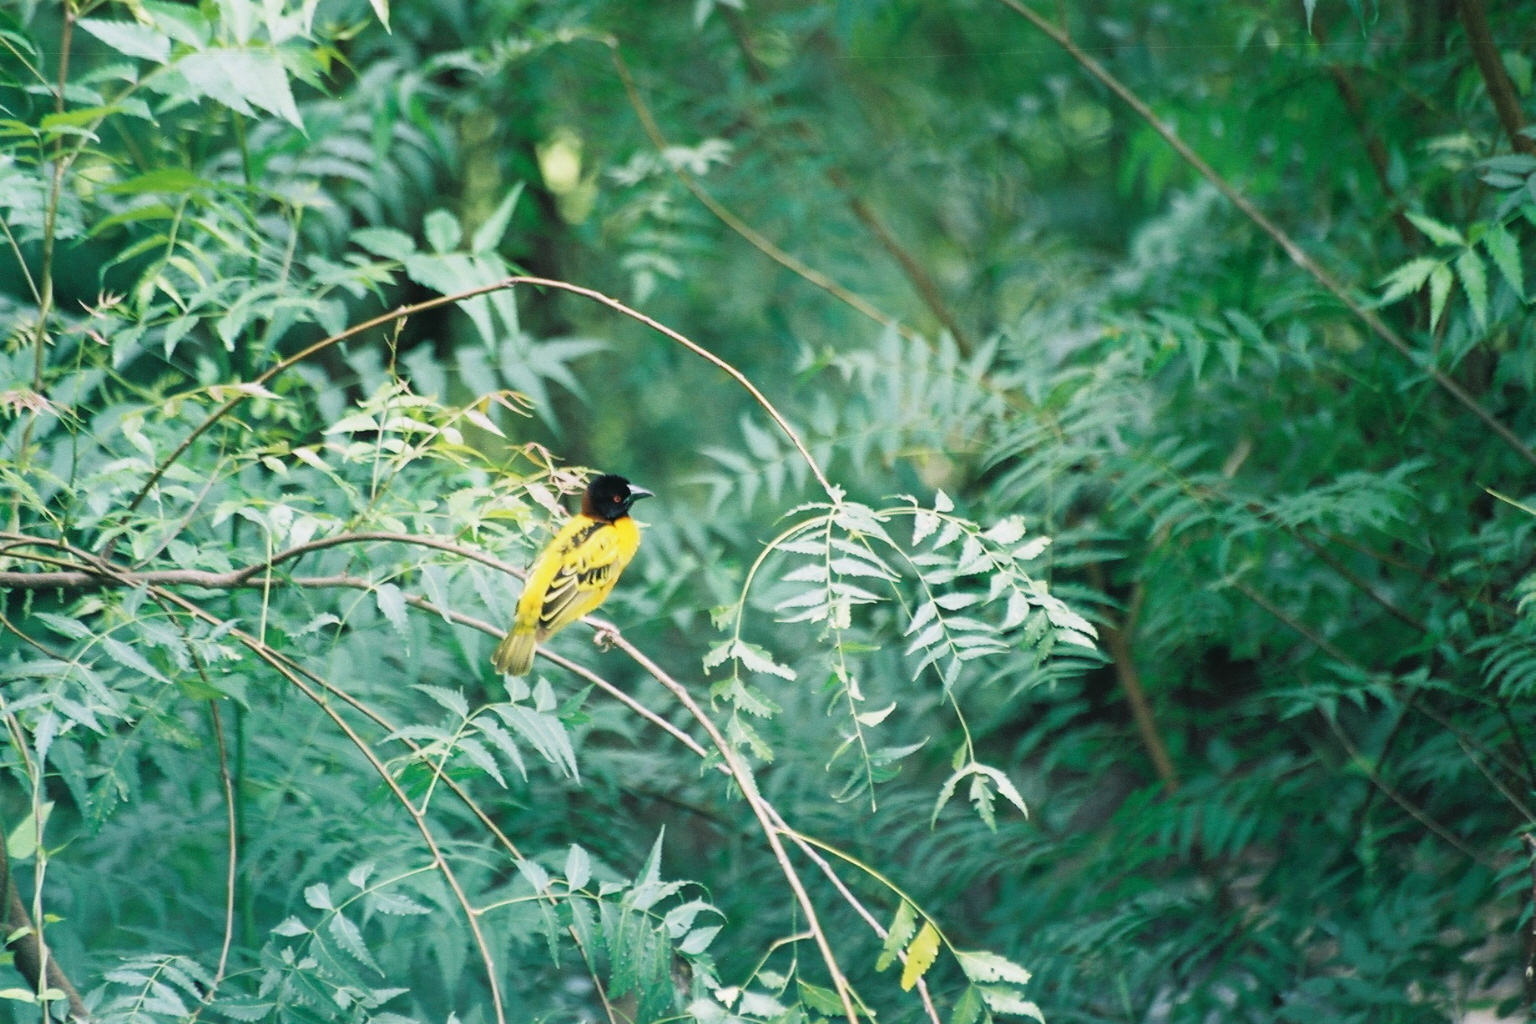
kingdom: Animalia
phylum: Chordata
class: Aves
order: Passeriformes
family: Ploceidae
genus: Ploceus
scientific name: Ploceus cucullatus
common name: Village weaver
